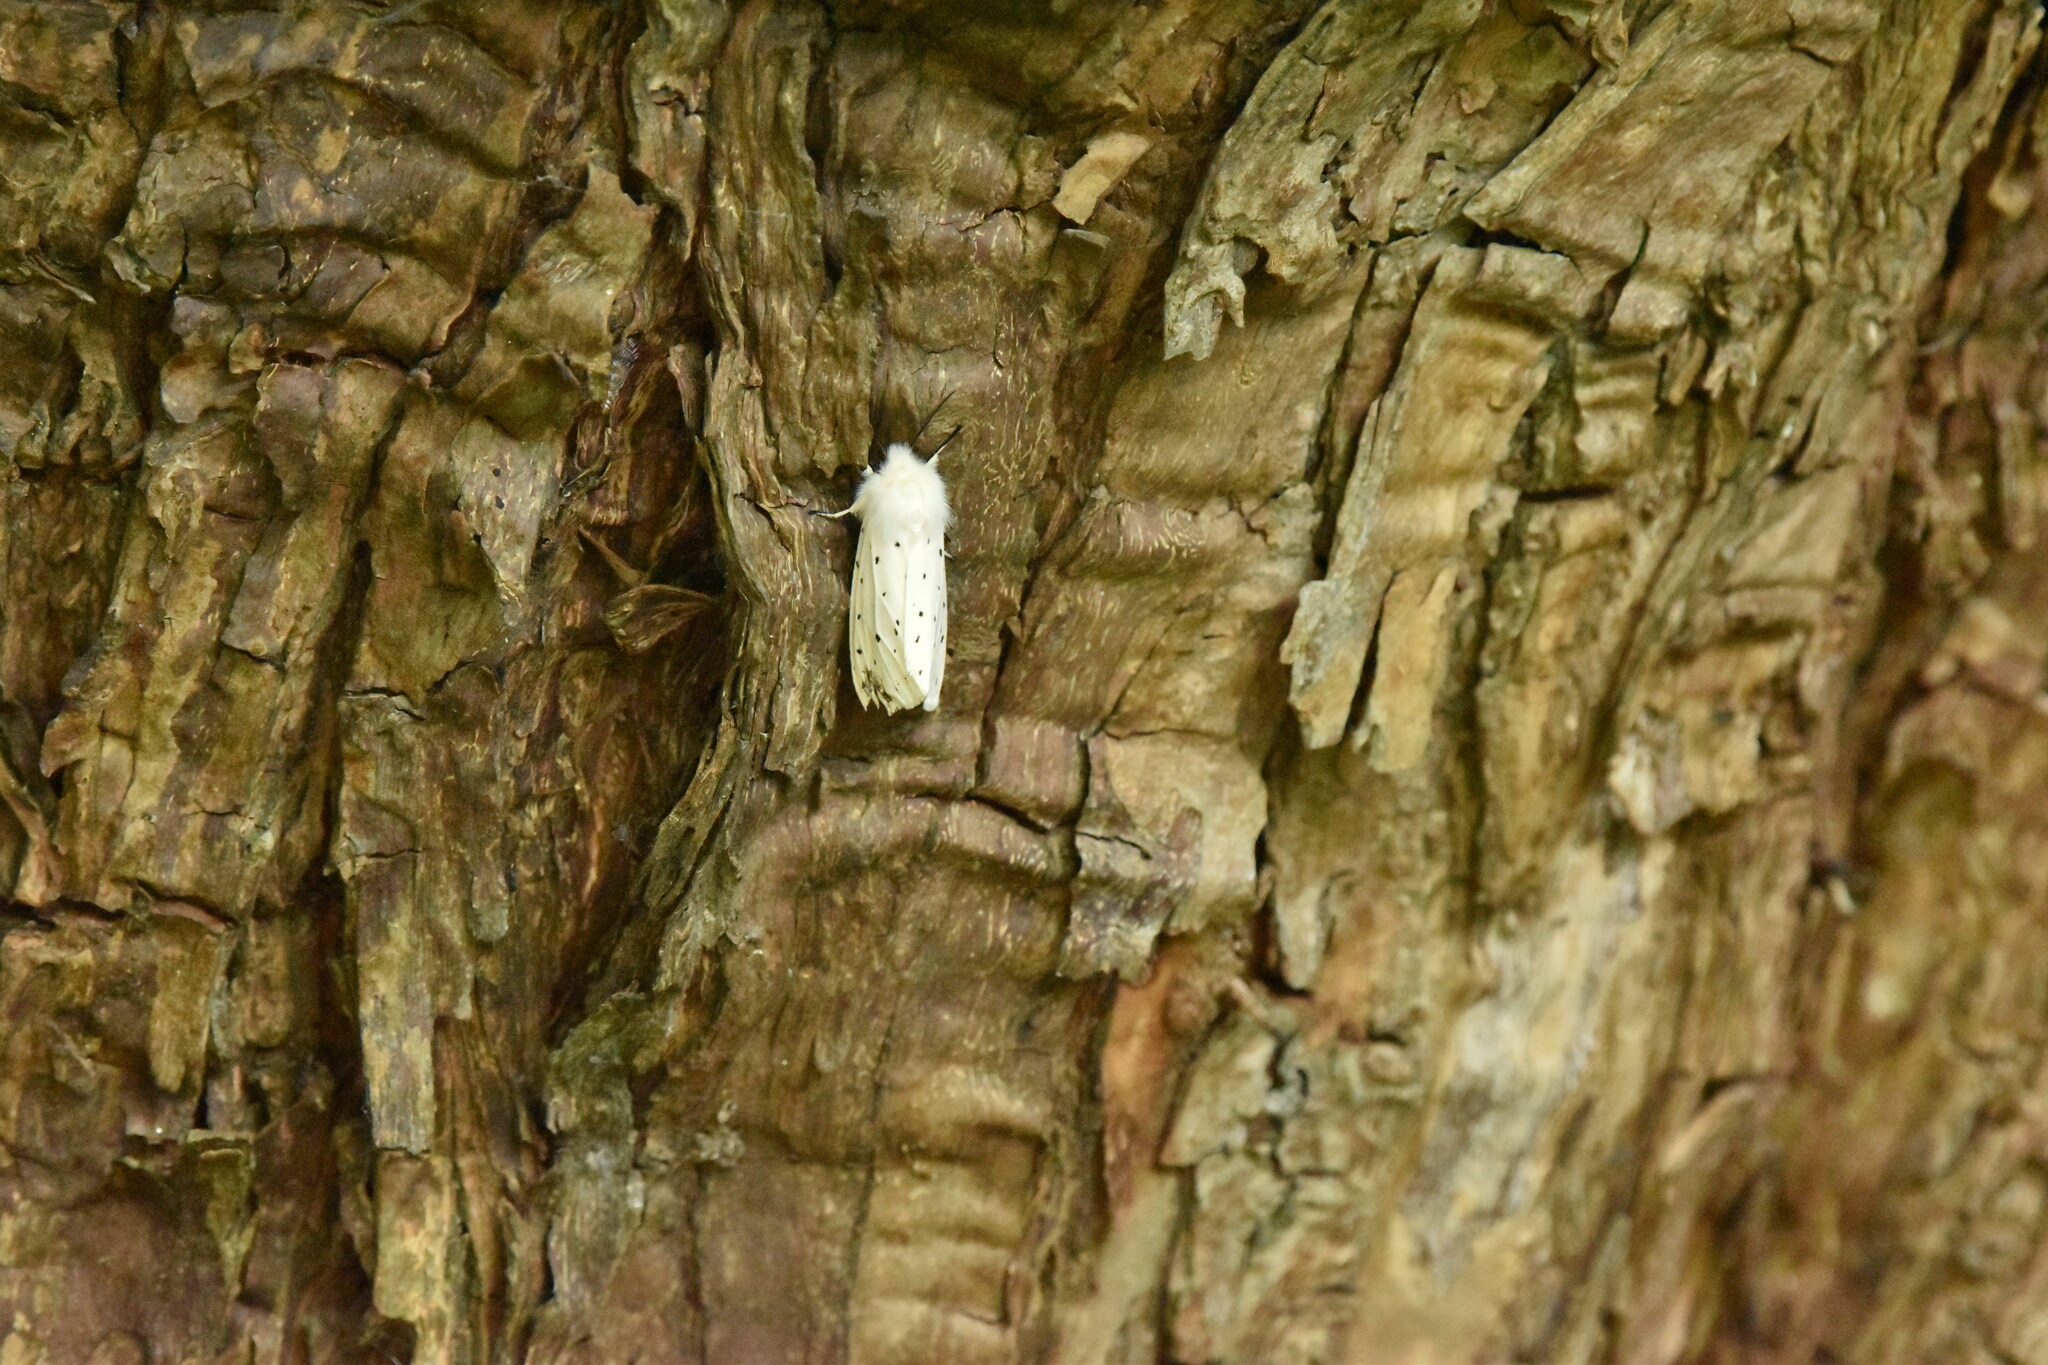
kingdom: Animalia
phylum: Arthropoda
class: Insecta
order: Lepidoptera
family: Erebidae
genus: Spilosoma
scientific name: Spilosoma lubricipeda
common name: White ermine
